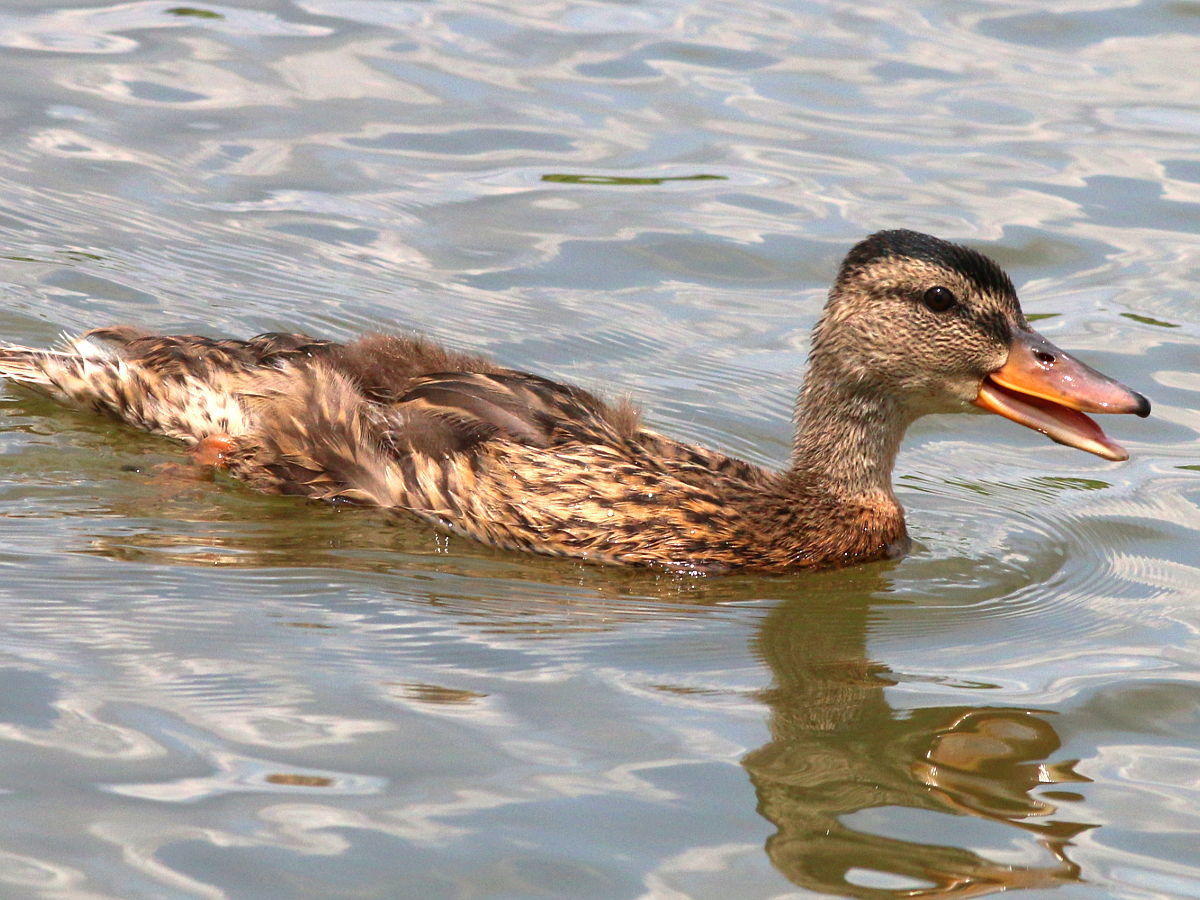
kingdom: Animalia
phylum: Chordata
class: Aves
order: Anseriformes
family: Anatidae
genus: Anas
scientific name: Anas platyrhynchos
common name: Mallard
